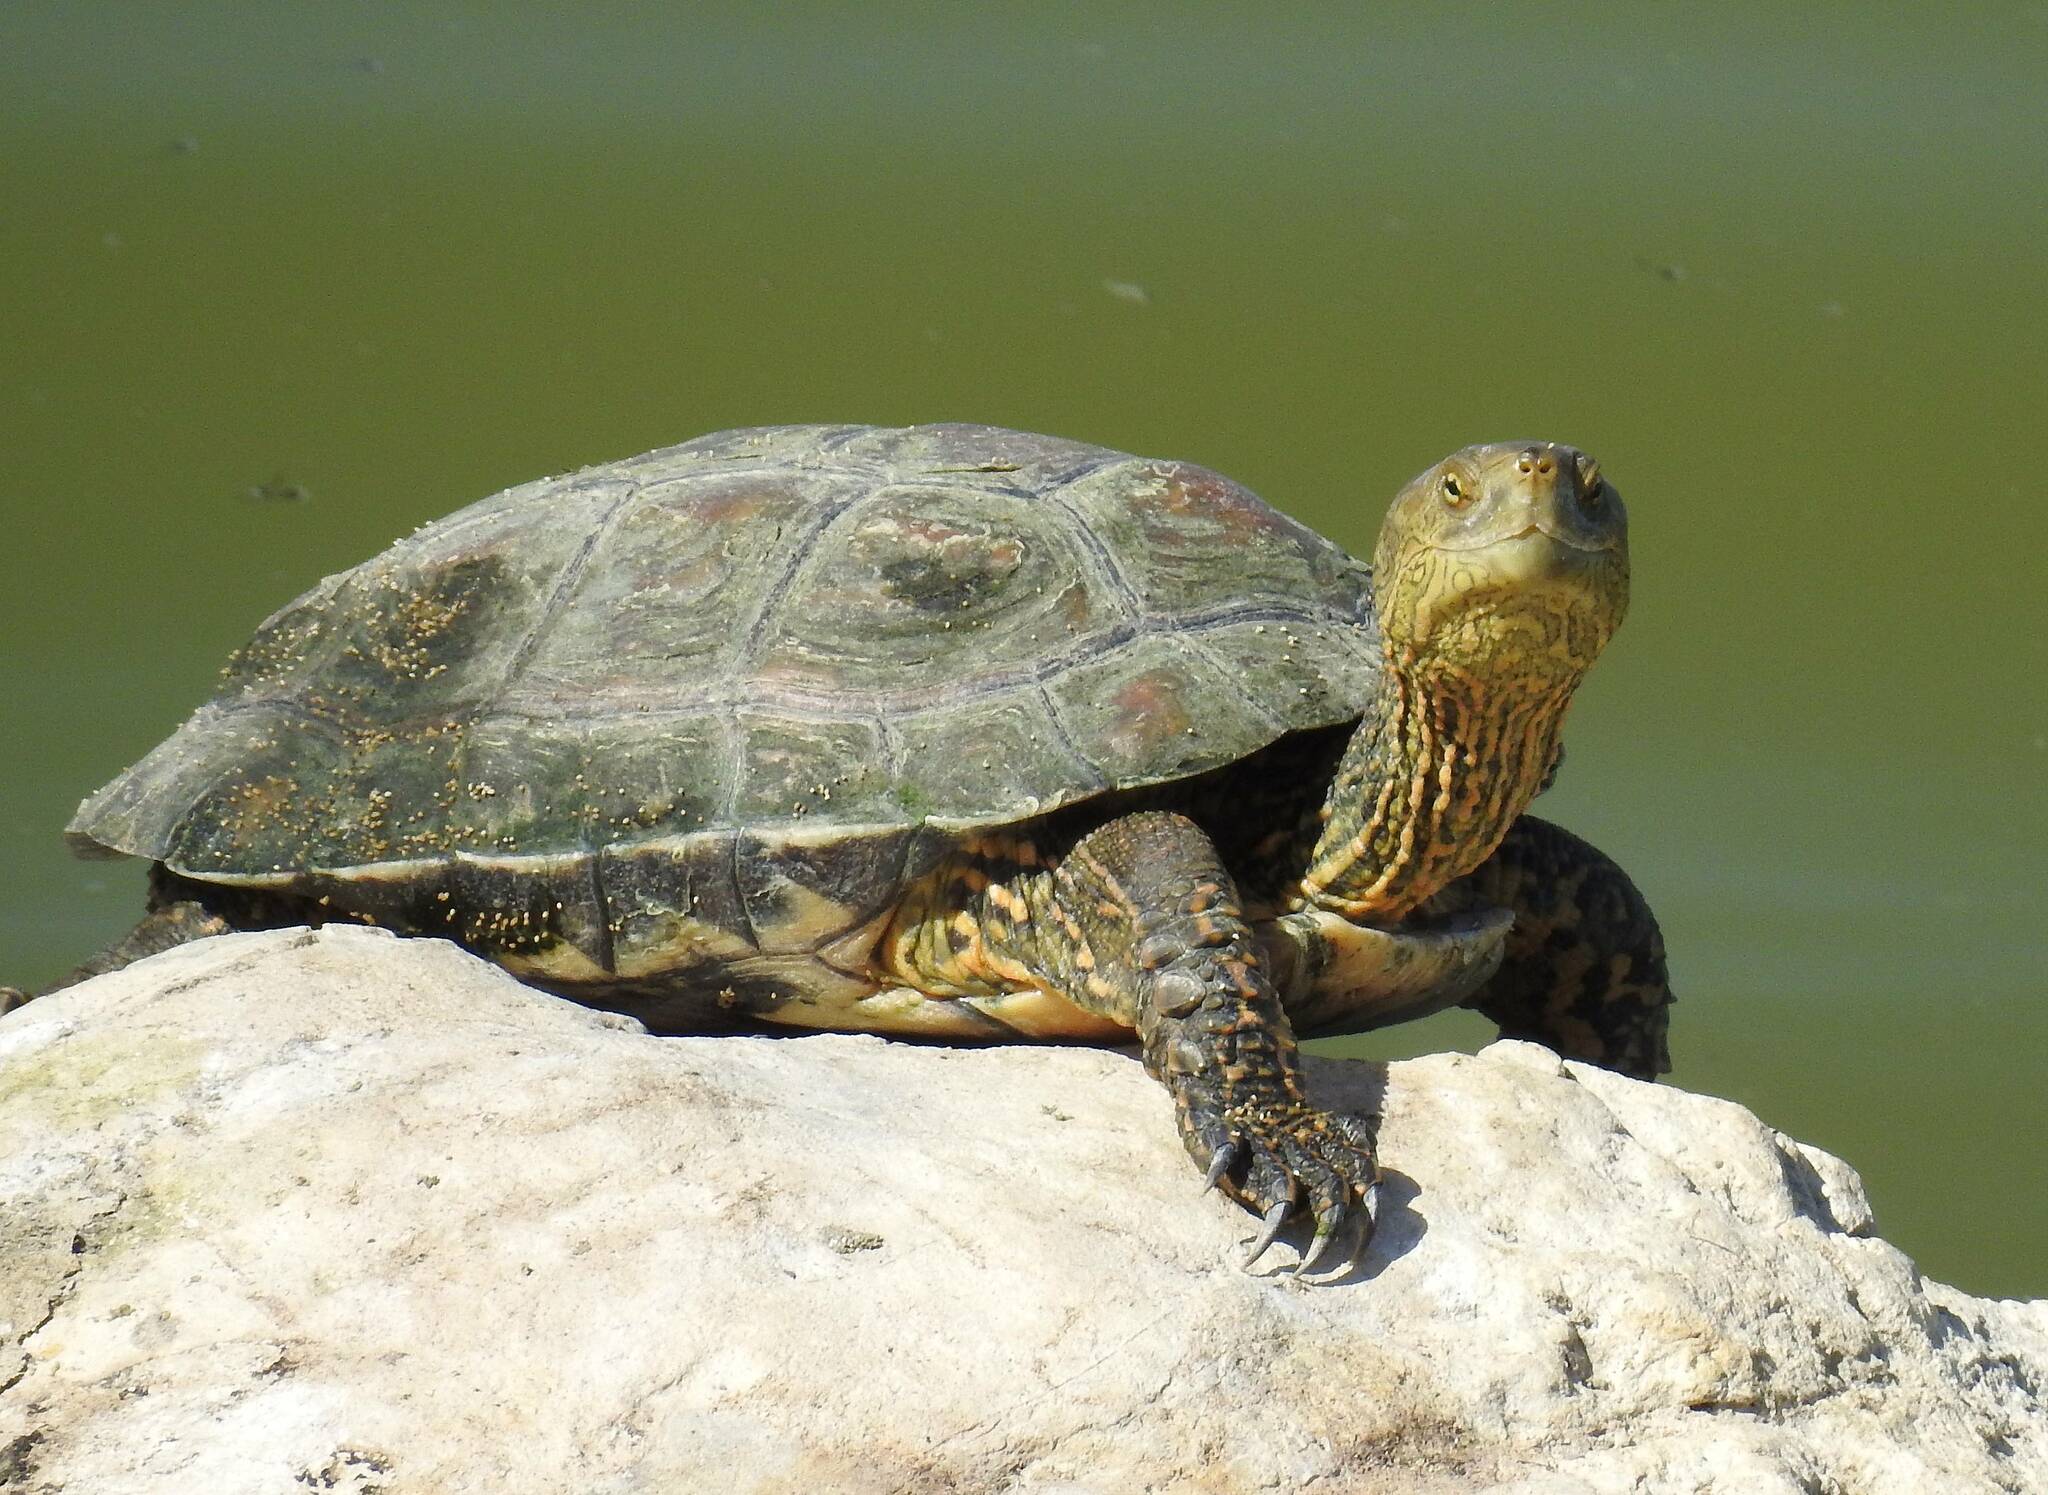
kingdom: Animalia
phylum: Chordata
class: Testudines
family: Geoemydidae
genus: Mauremys
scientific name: Mauremys leprosa
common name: Mediterranean pond turtle
